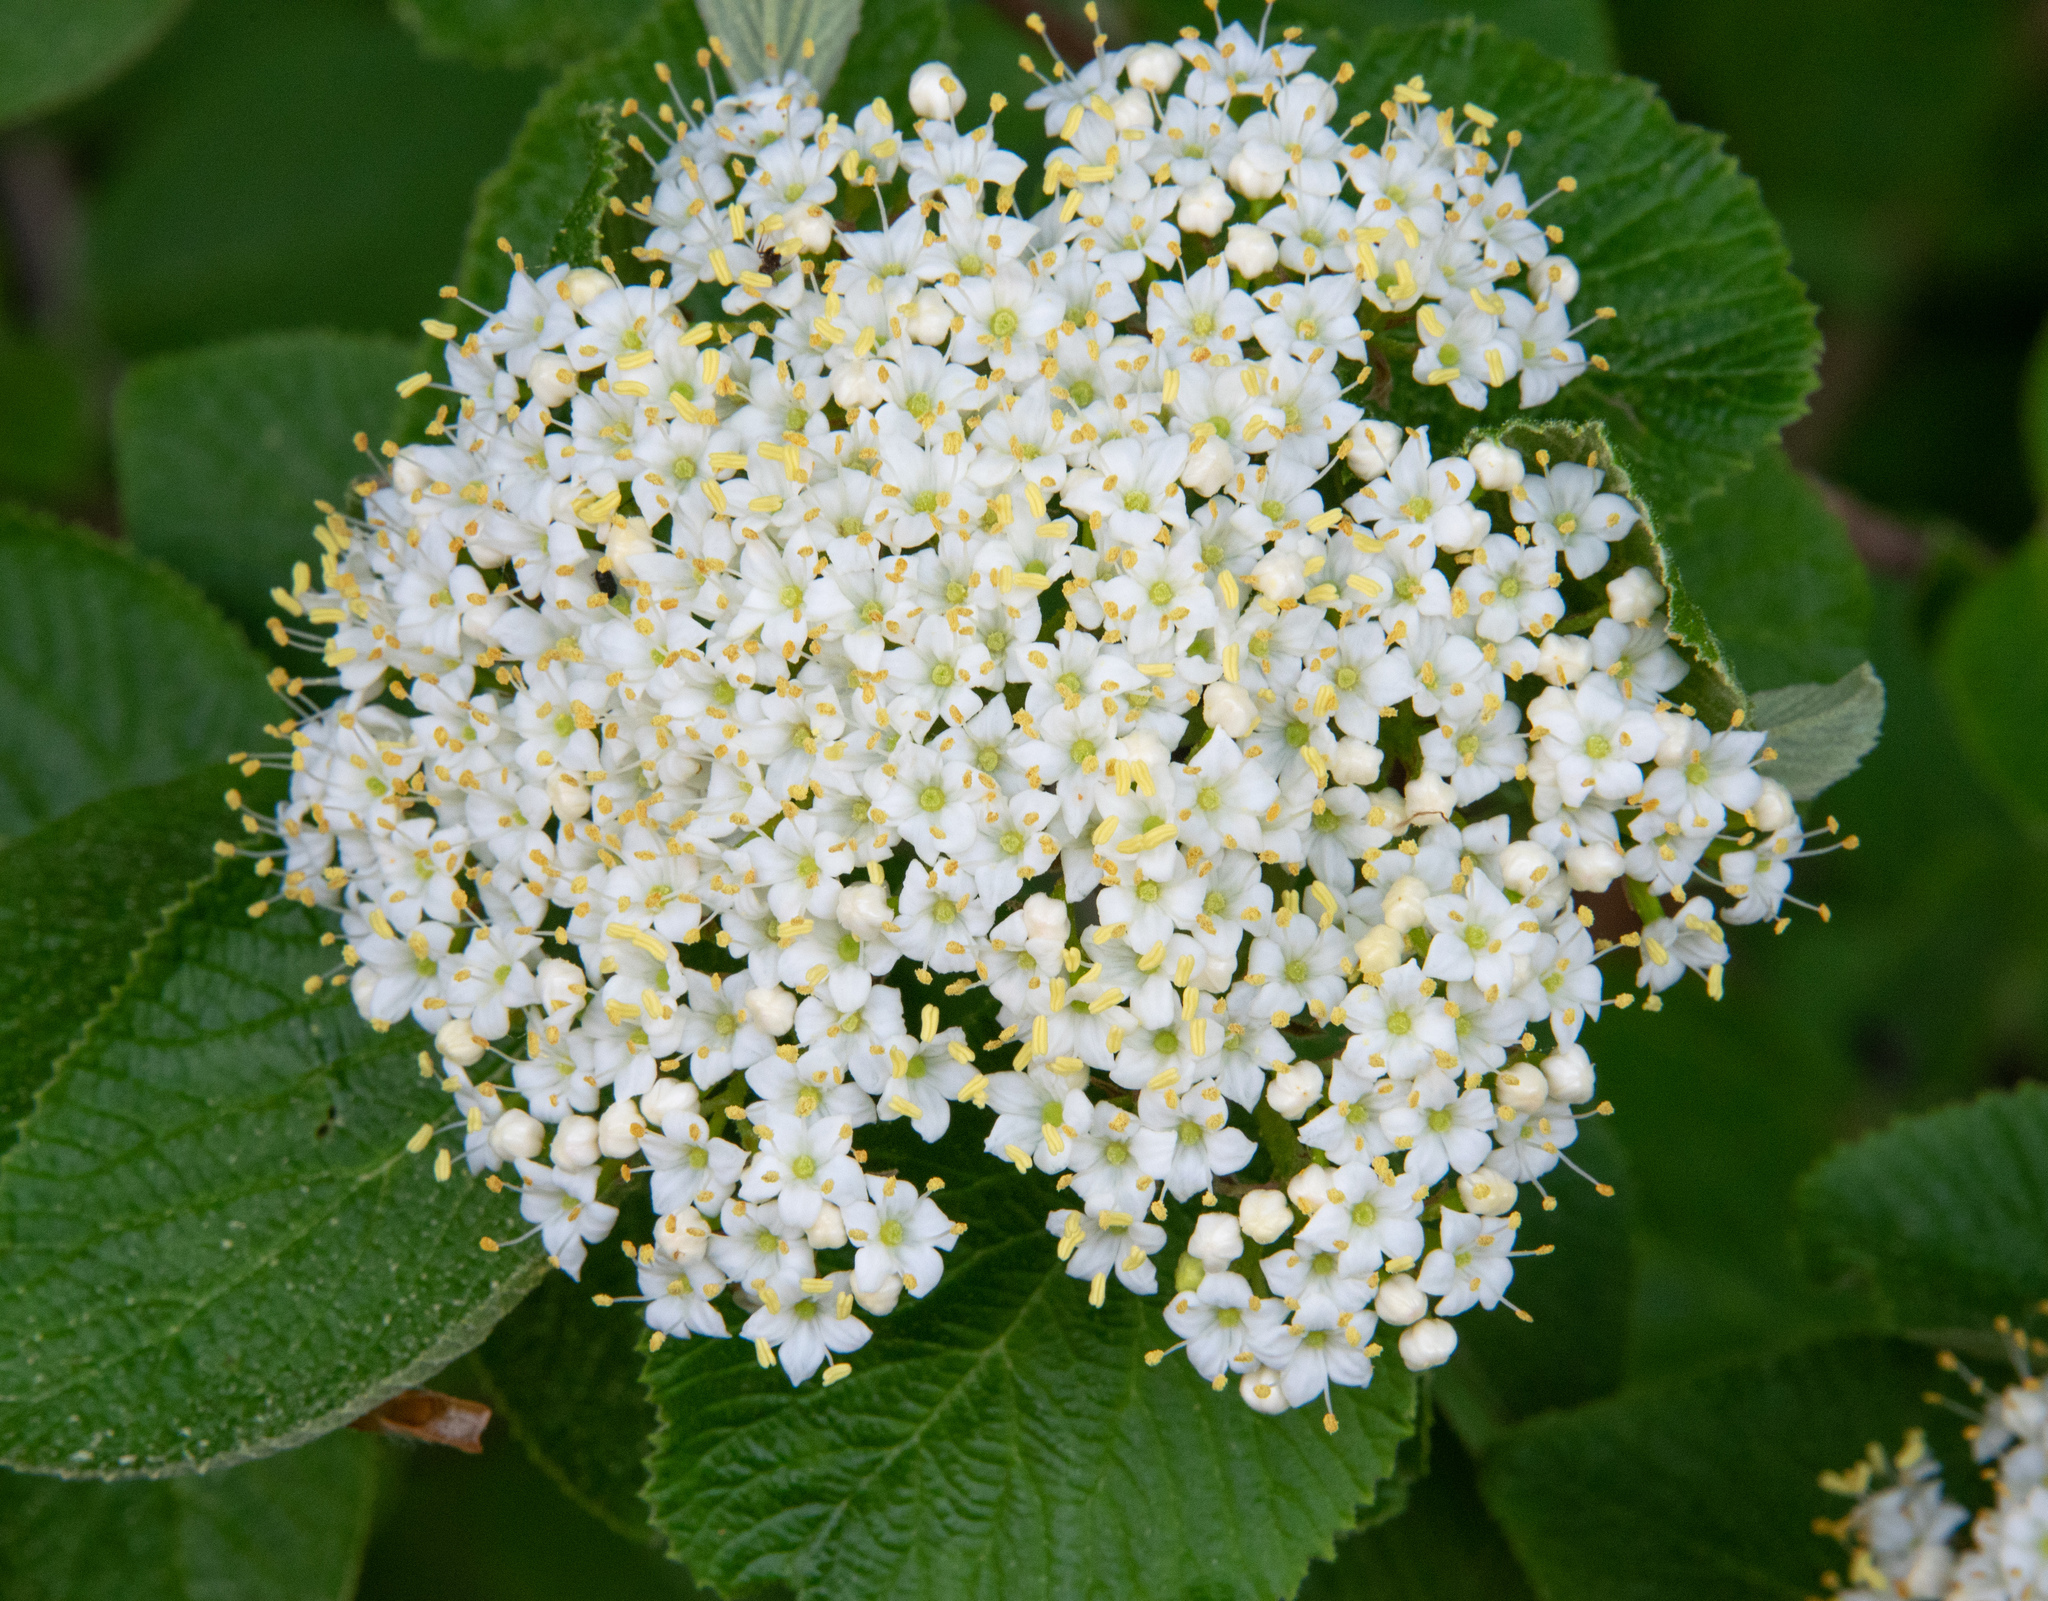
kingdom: Plantae
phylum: Tracheophyta
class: Magnoliopsida
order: Dipsacales
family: Viburnaceae
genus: Viburnum
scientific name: Viburnum lantana
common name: Wayfaring tree
